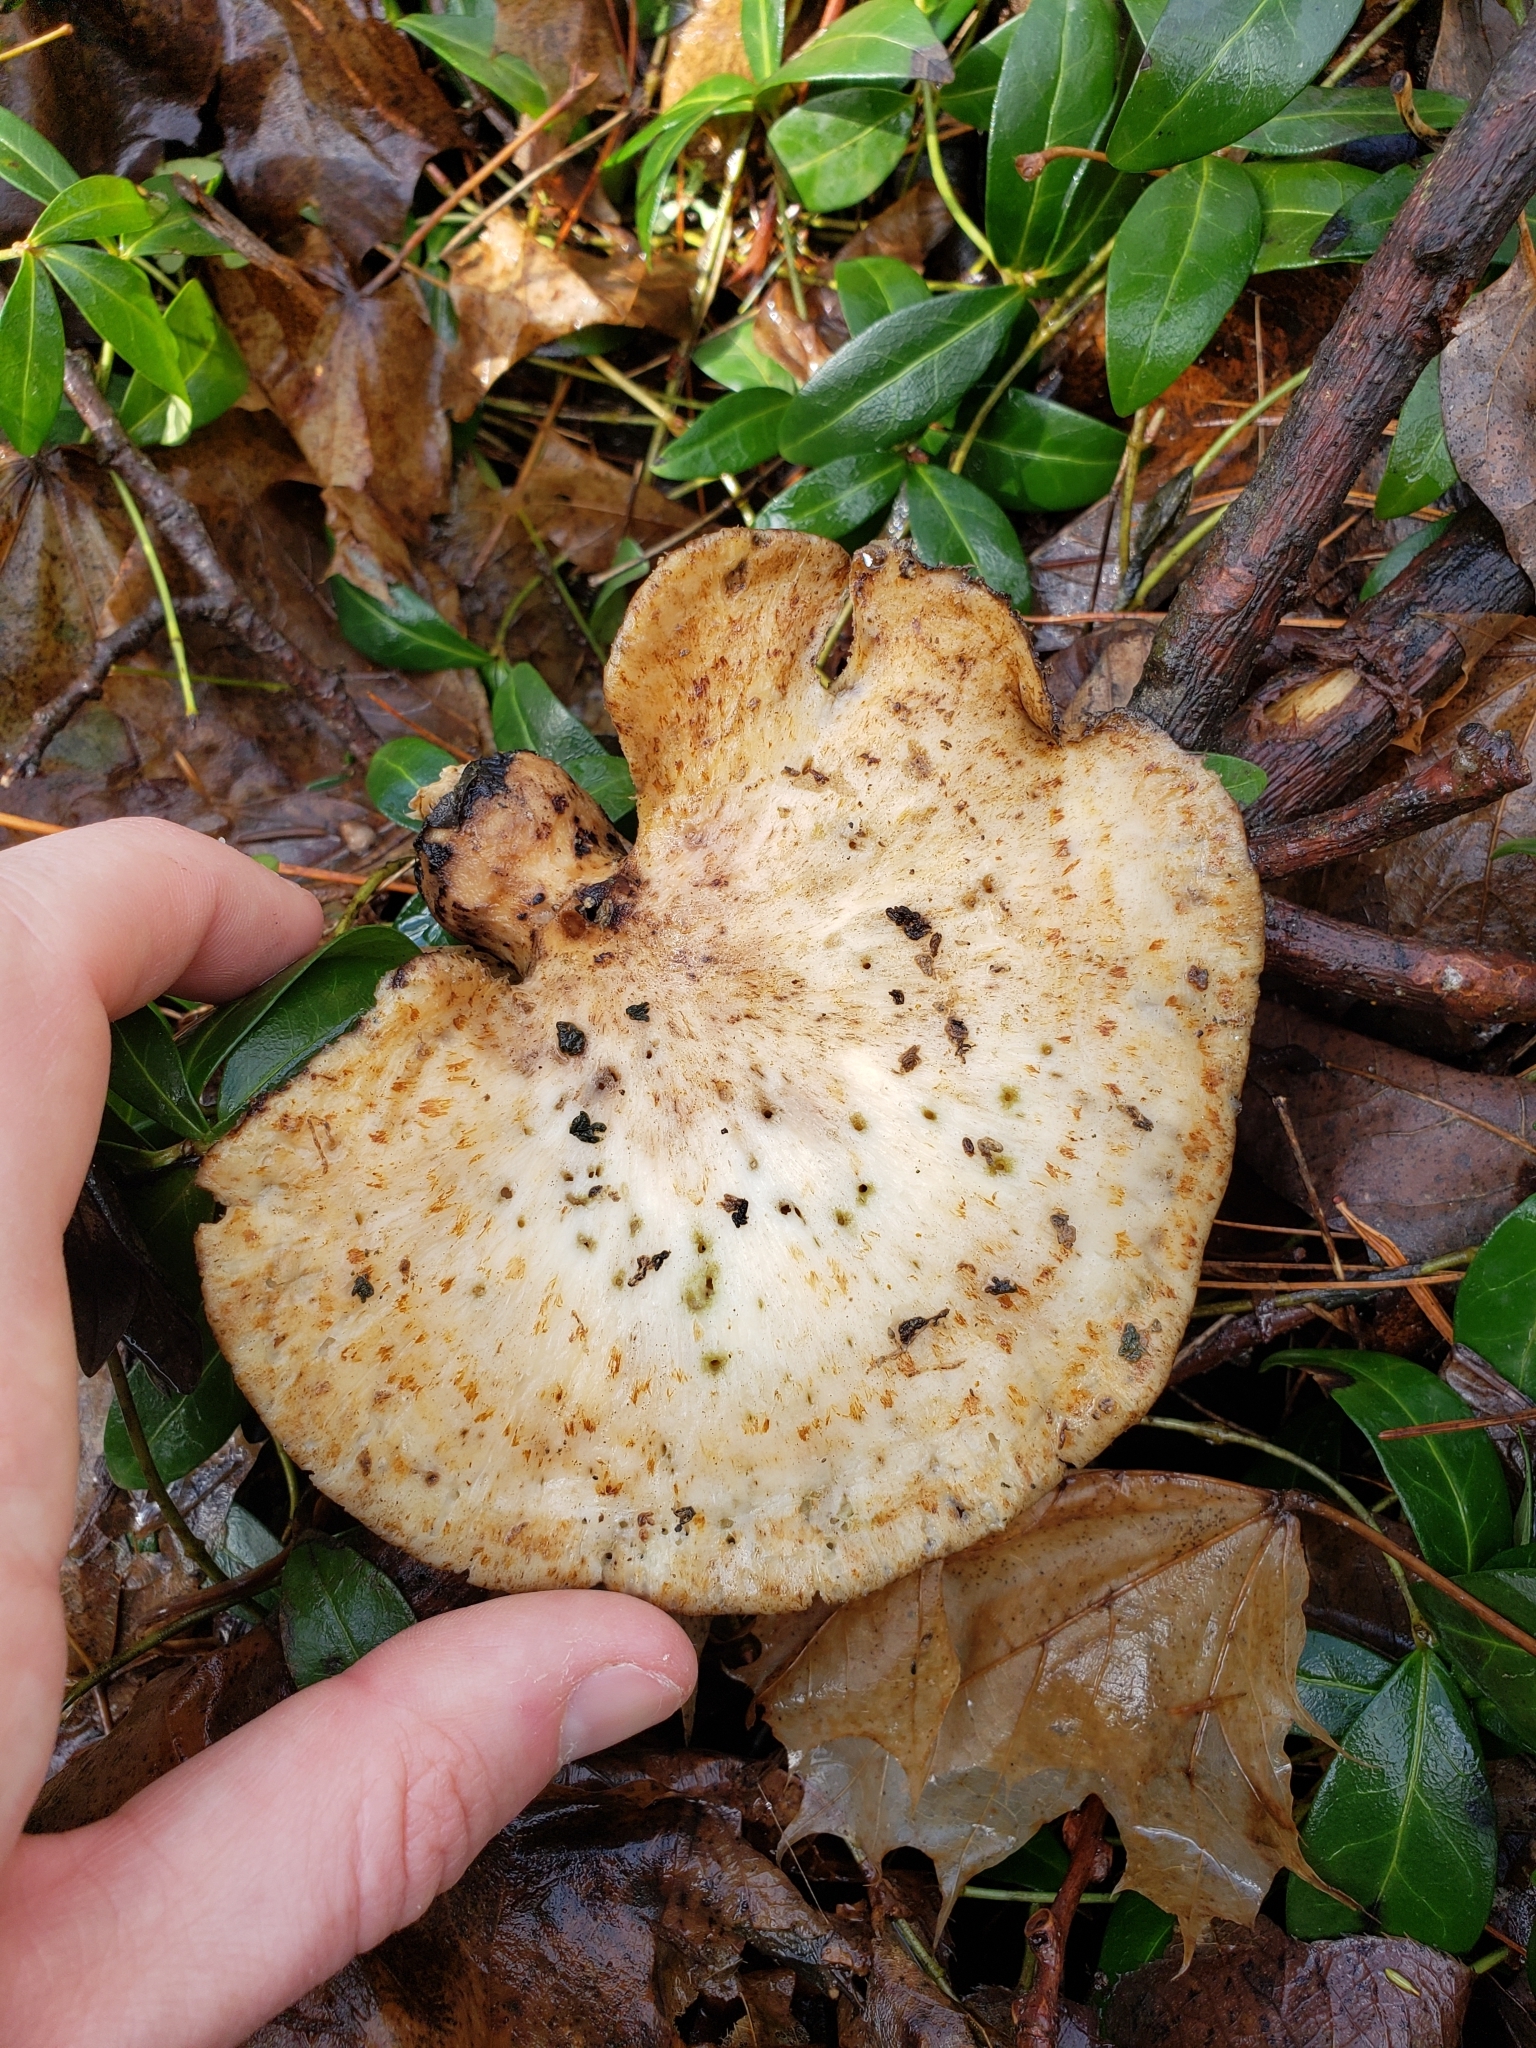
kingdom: Fungi
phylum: Basidiomycota
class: Agaricomycetes
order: Polyporales
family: Polyporaceae
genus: Cerioporus
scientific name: Cerioporus squamosus
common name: Dryad's saddle
